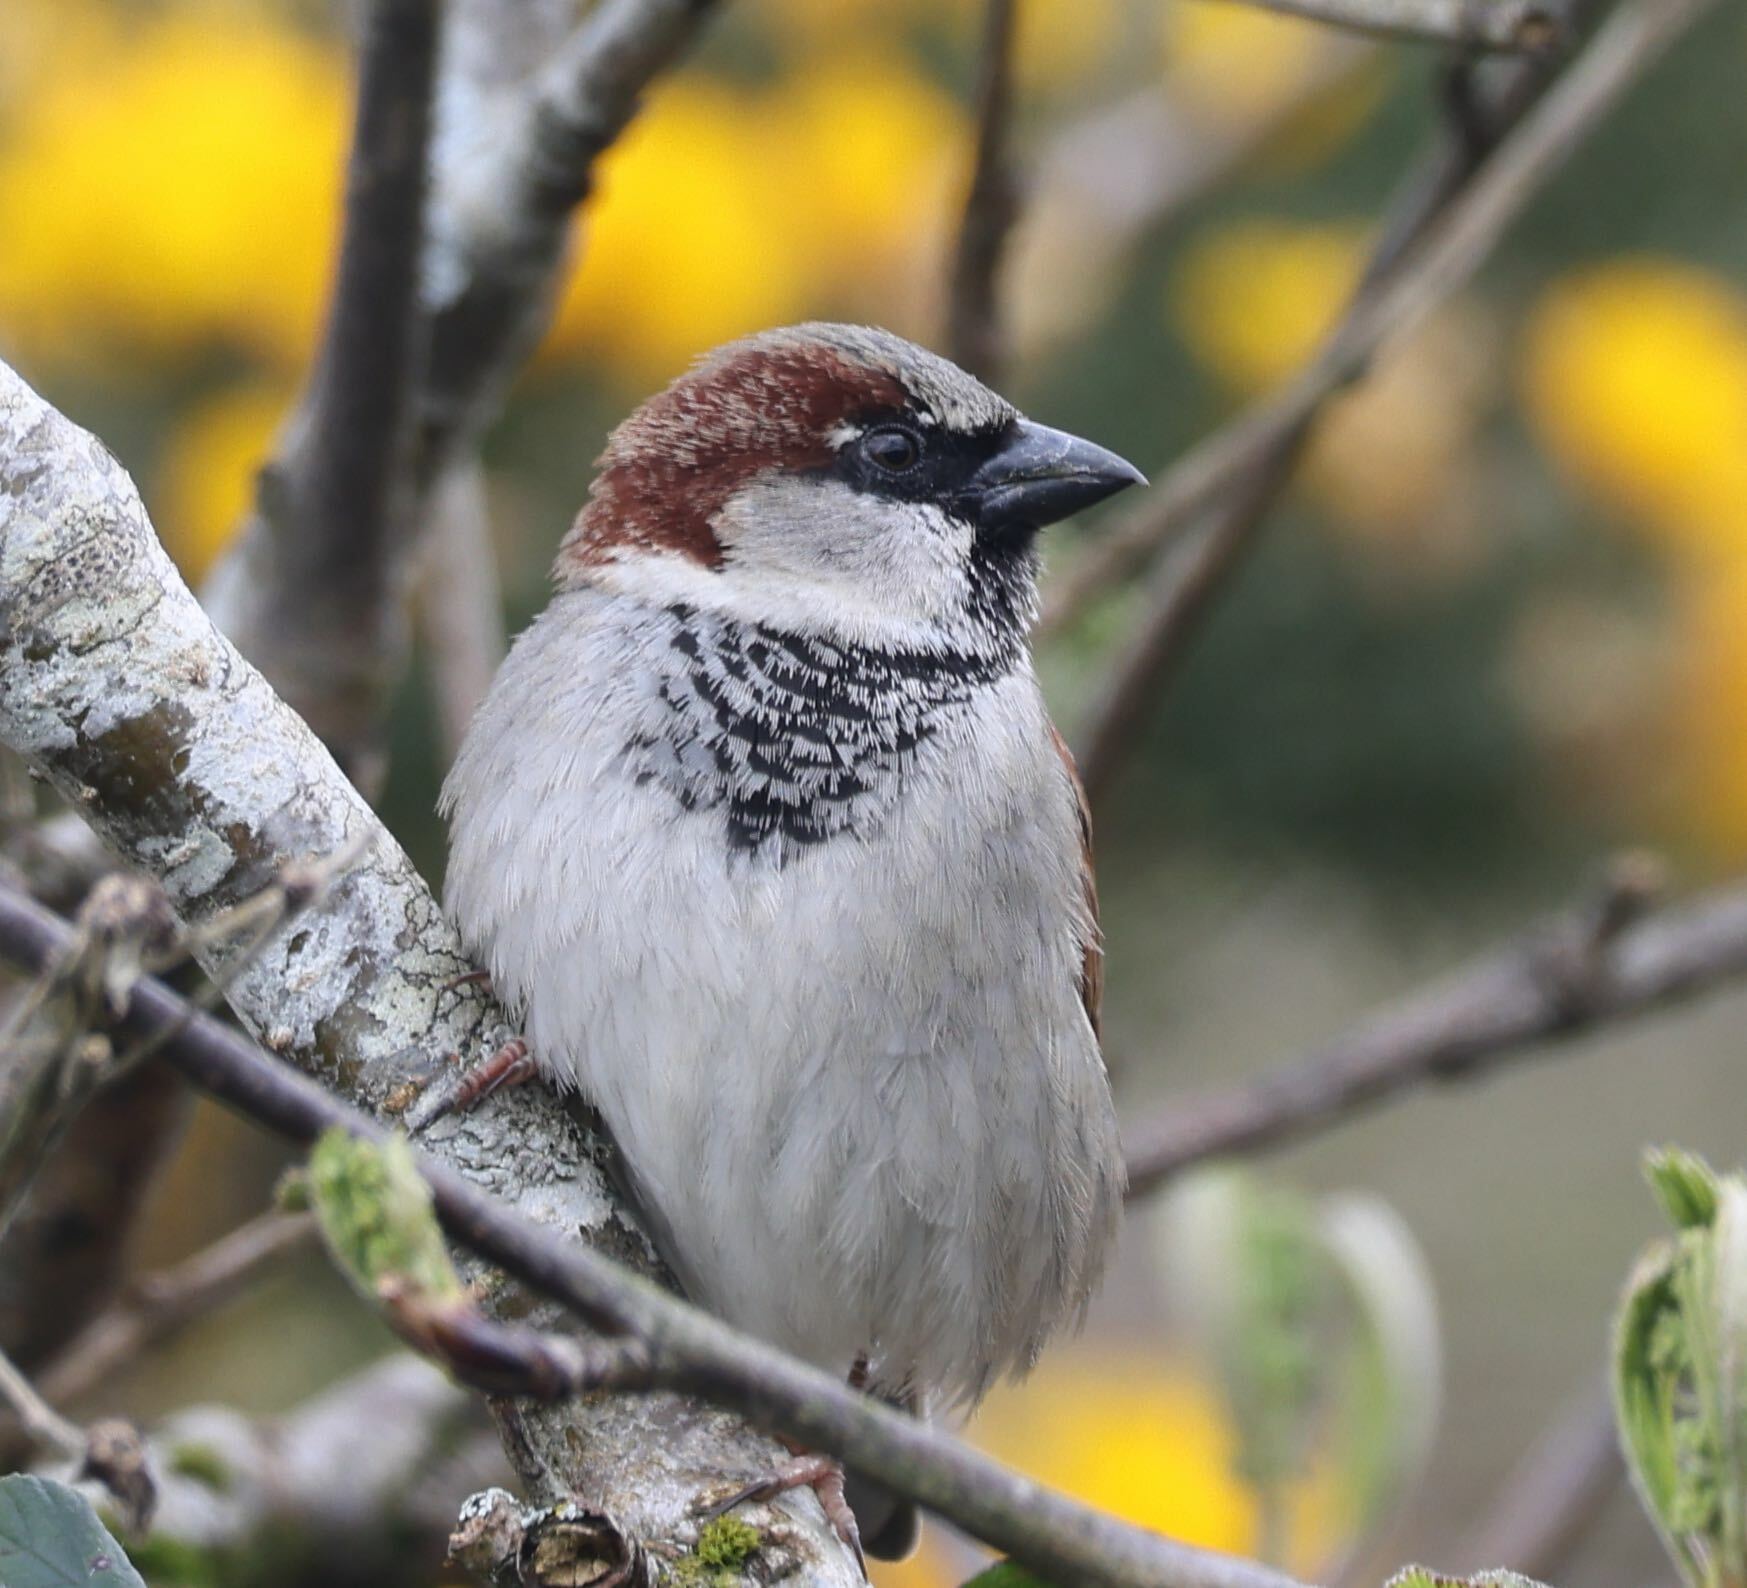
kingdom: Animalia
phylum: Chordata
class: Aves
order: Passeriformes
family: Passeridae
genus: Passer
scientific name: Passer domesticus
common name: House sparrow
